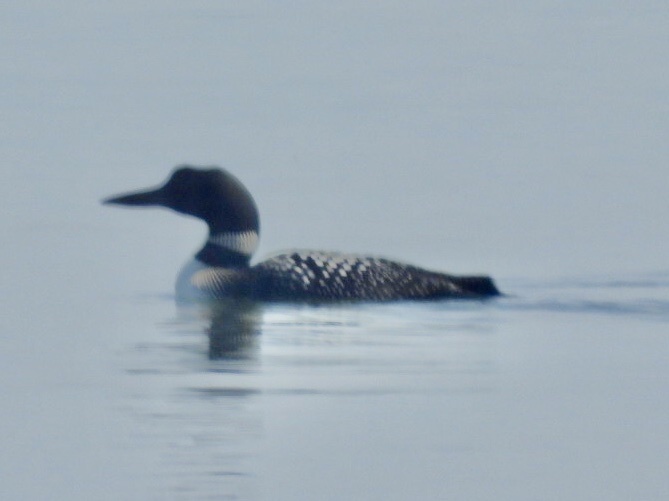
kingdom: Animalia
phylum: Chordata
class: Aves
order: Gaviiformes
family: Gaviidae
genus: Gavia
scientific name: Gavia immer
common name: Common loon
